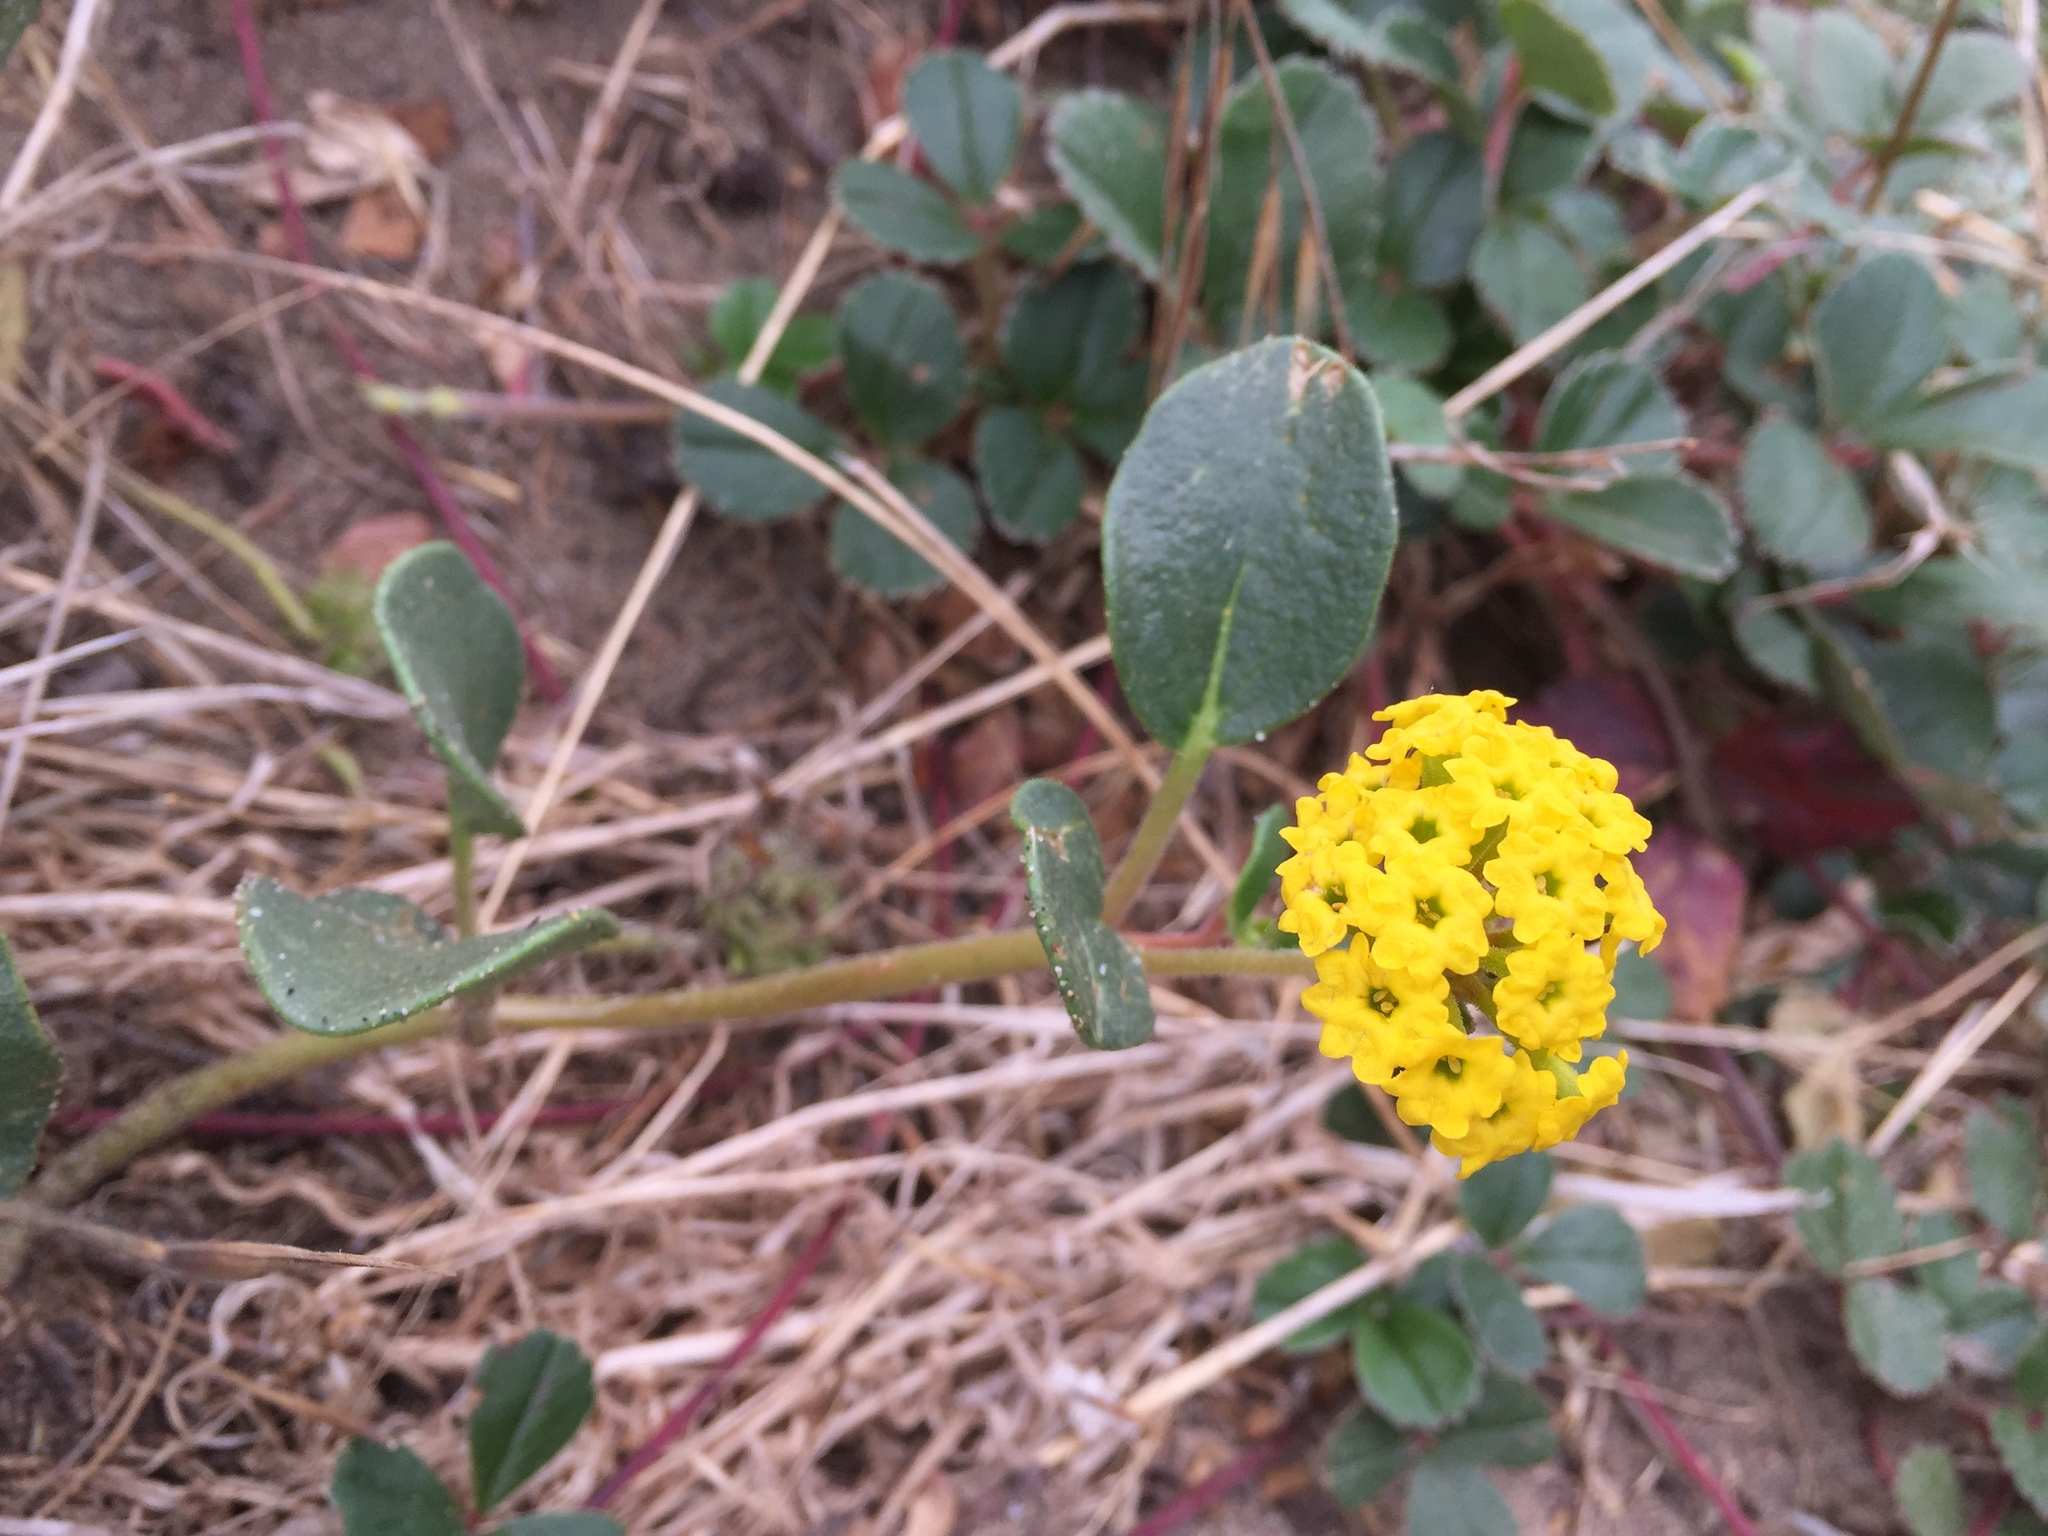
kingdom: Plantae
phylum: Tracheophyta
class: Magnoliopsida
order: Caryophyllales
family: Nyctaginaceae
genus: Abronia
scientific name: Abronia latifolia
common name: Yellow sand-verbena
